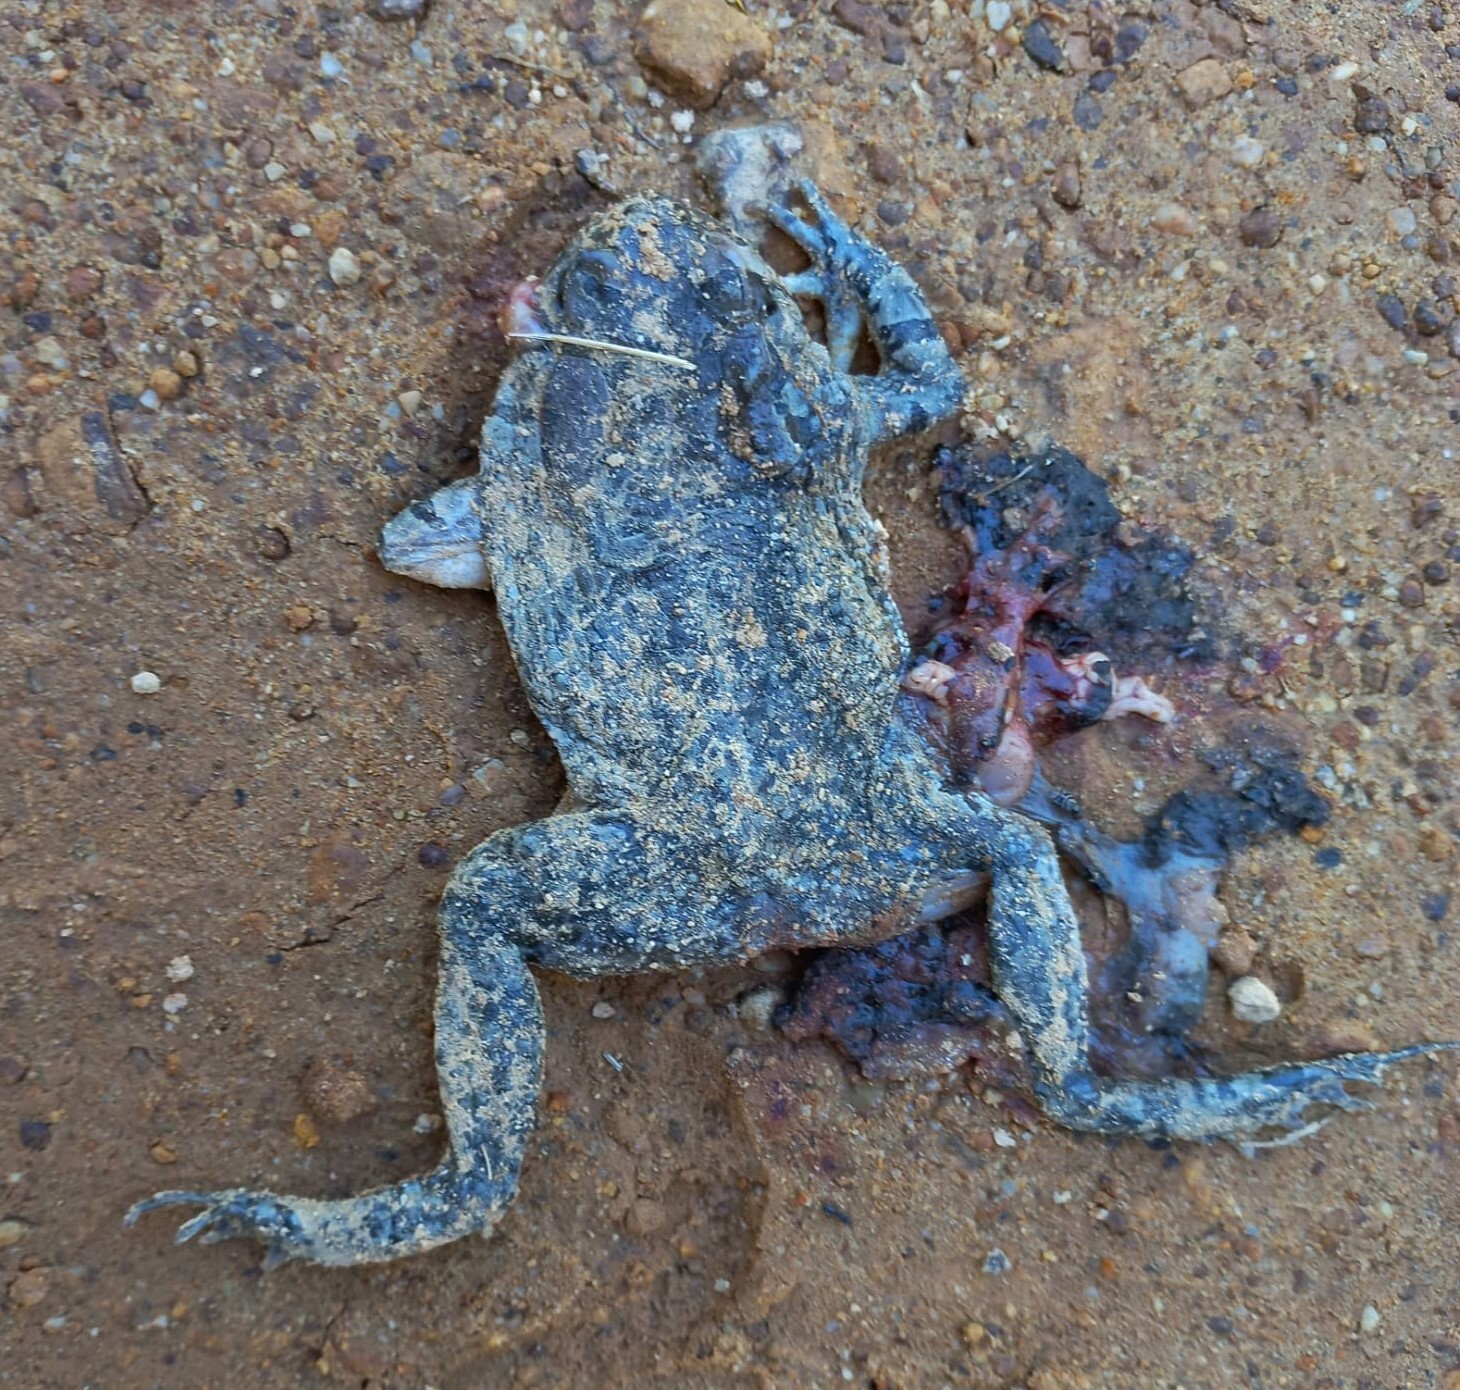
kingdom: Animalia
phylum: Chordata
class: Amphibia
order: Anura
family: Bufonidae
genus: Sclerophrys
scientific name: Sclerophrys capensis
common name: Ranger’s toad
